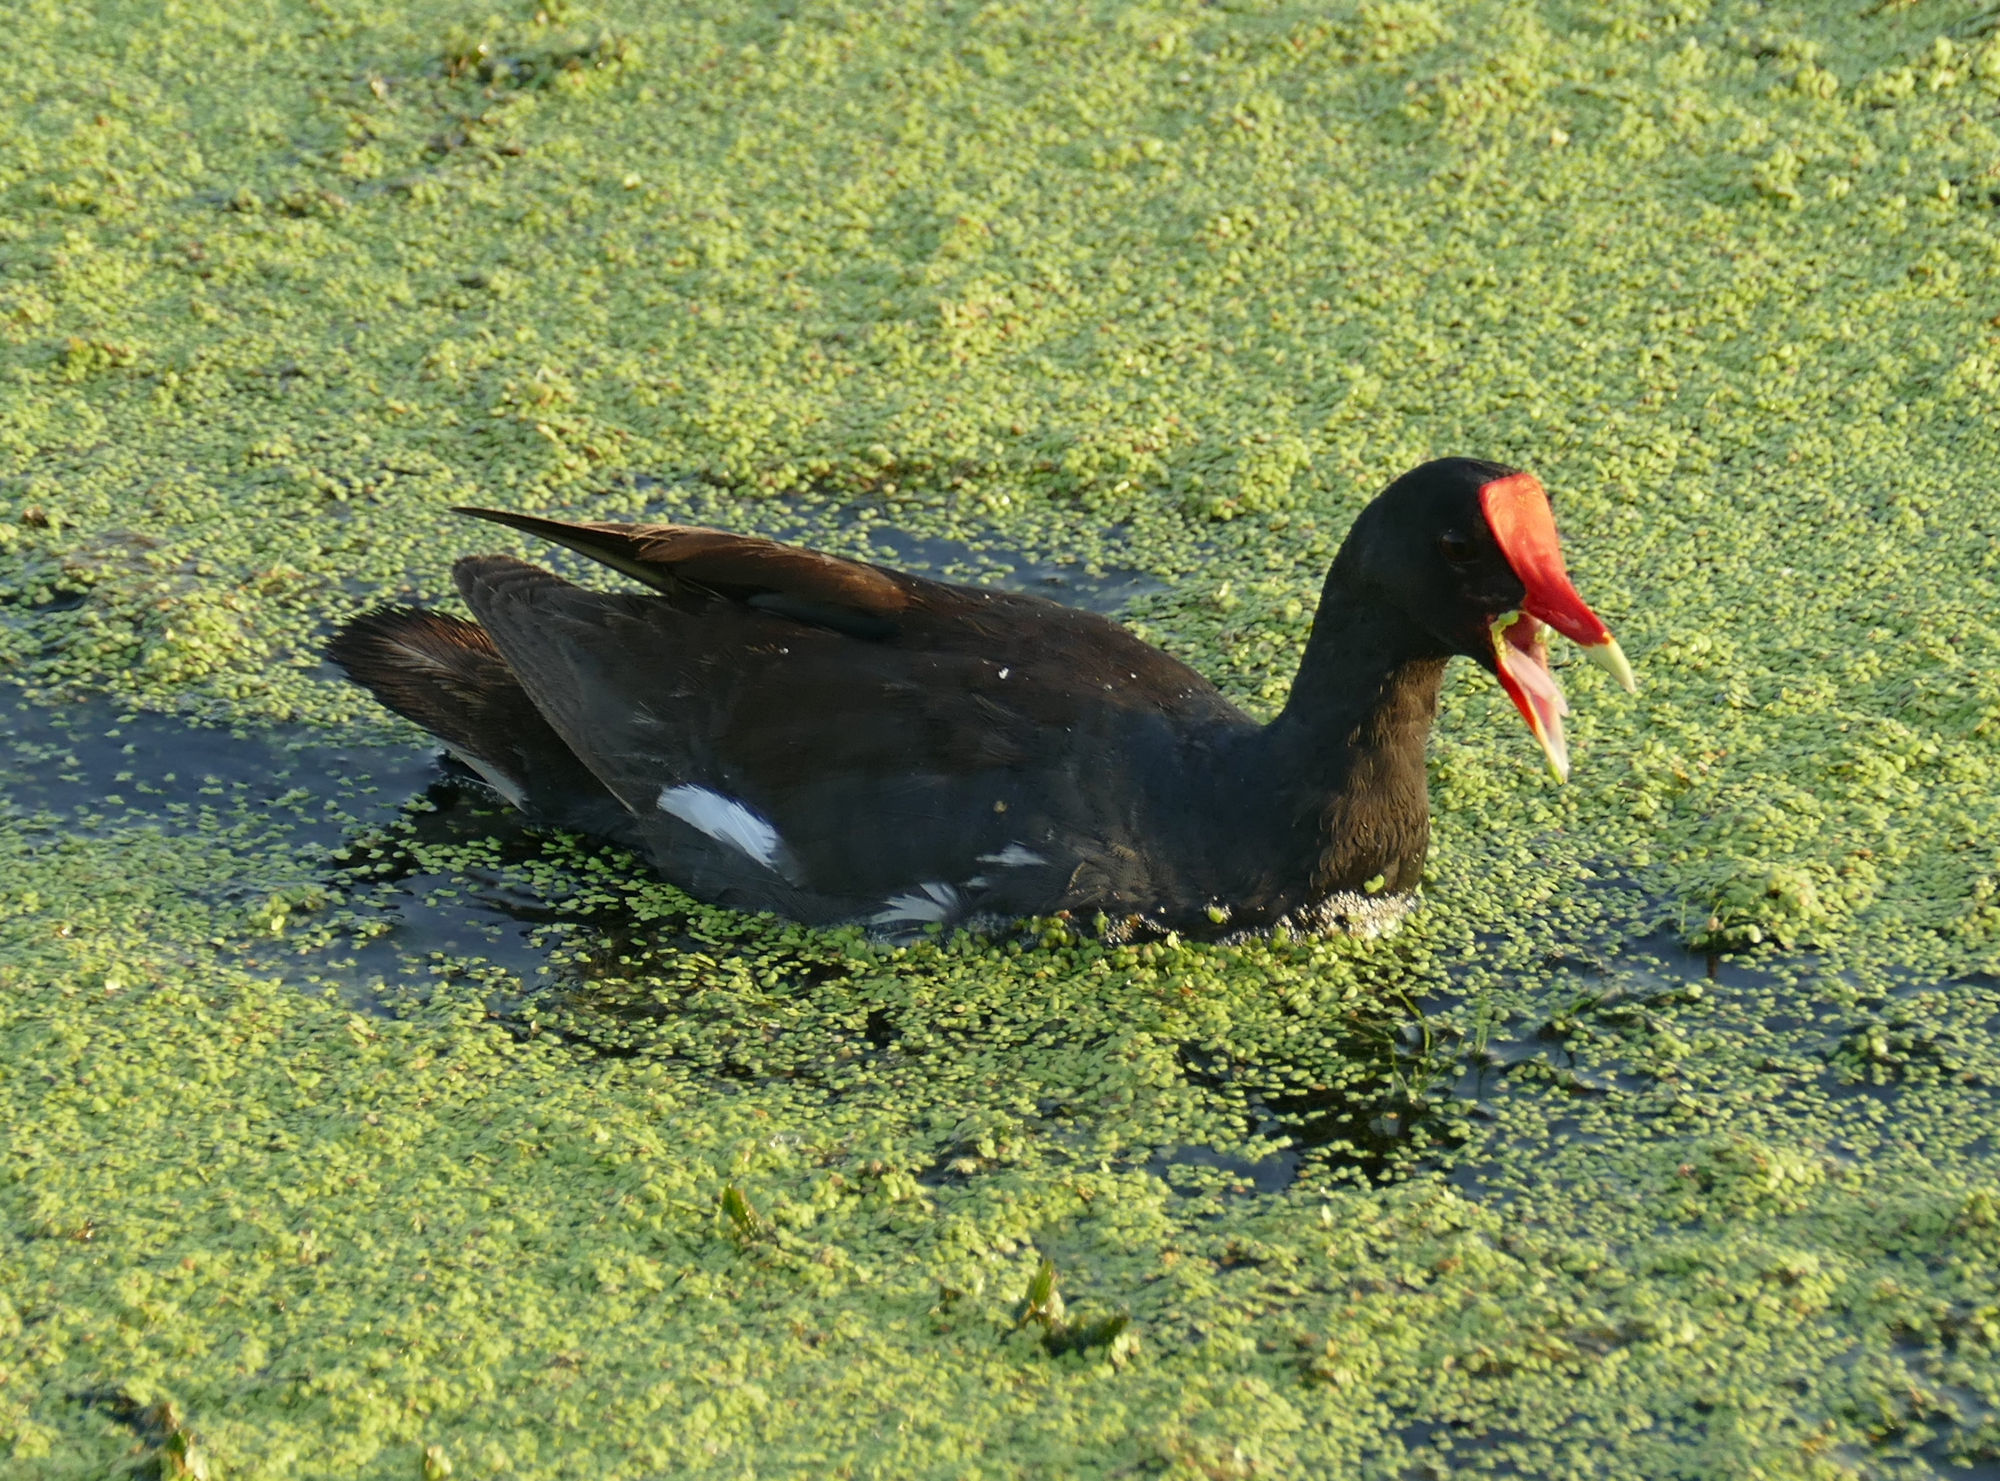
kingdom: Animalia
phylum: Chordata
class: Aves
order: Gruiformes
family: Rallidae
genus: Gallinula
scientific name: Gallinula chloropus
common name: Common moorhen
